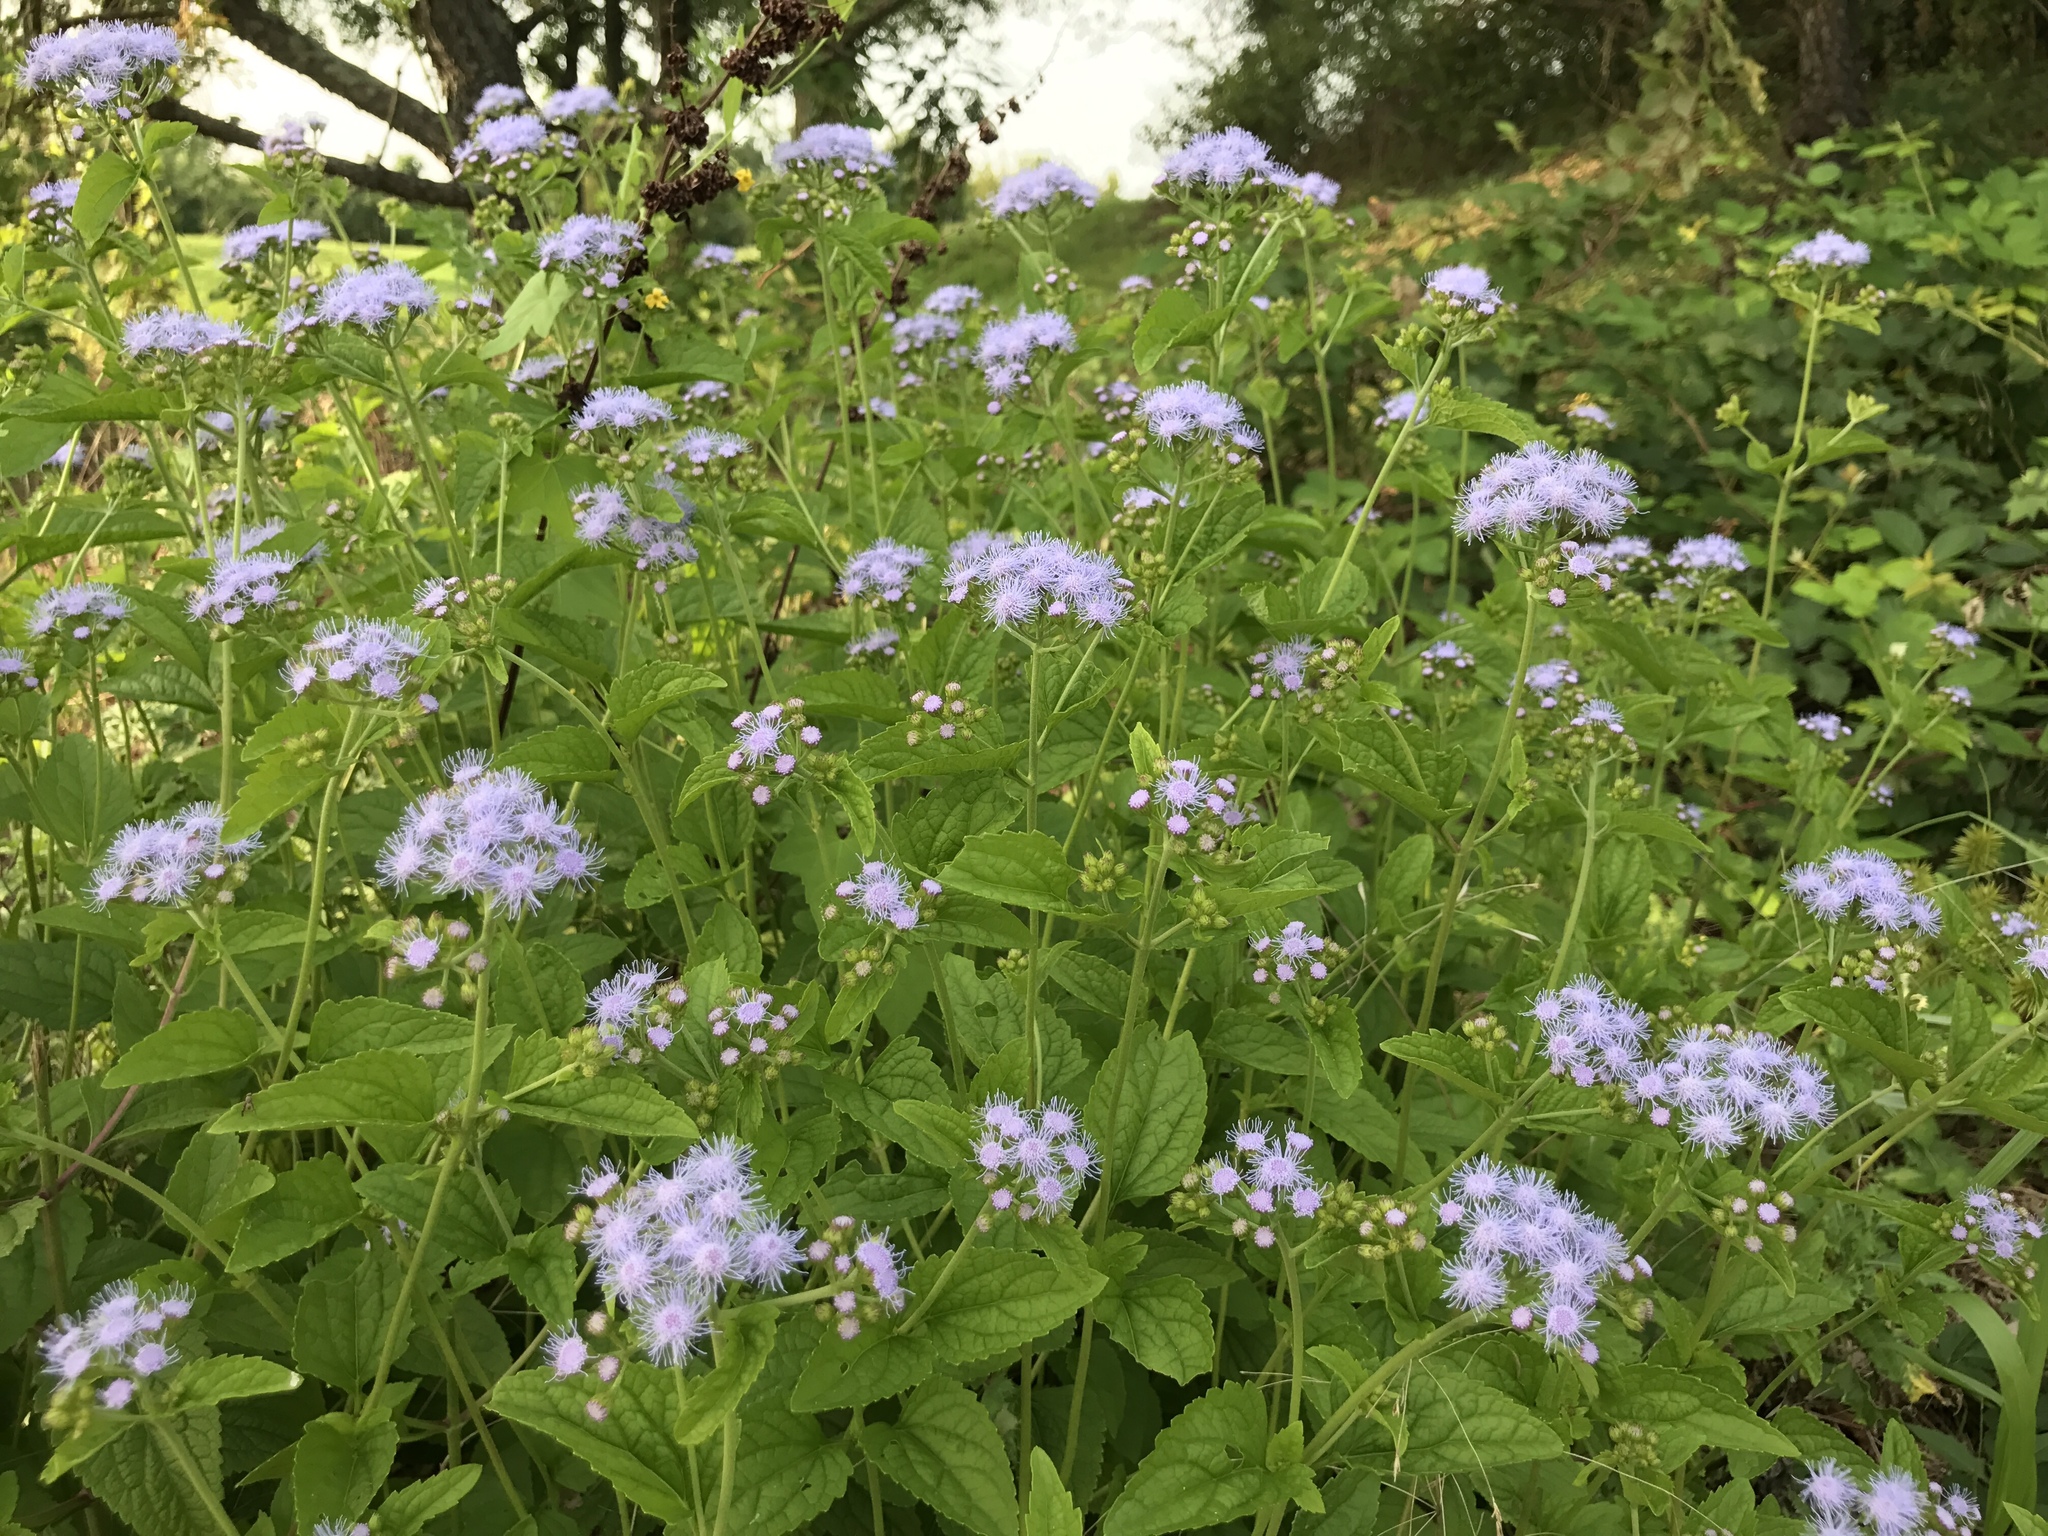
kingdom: Plantae
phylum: Tracheophyta
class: Magnoliopsida
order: Asterales
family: Asteraceae
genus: Conoclinium
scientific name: Conoclinium coelestinum
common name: Blue mistflower
